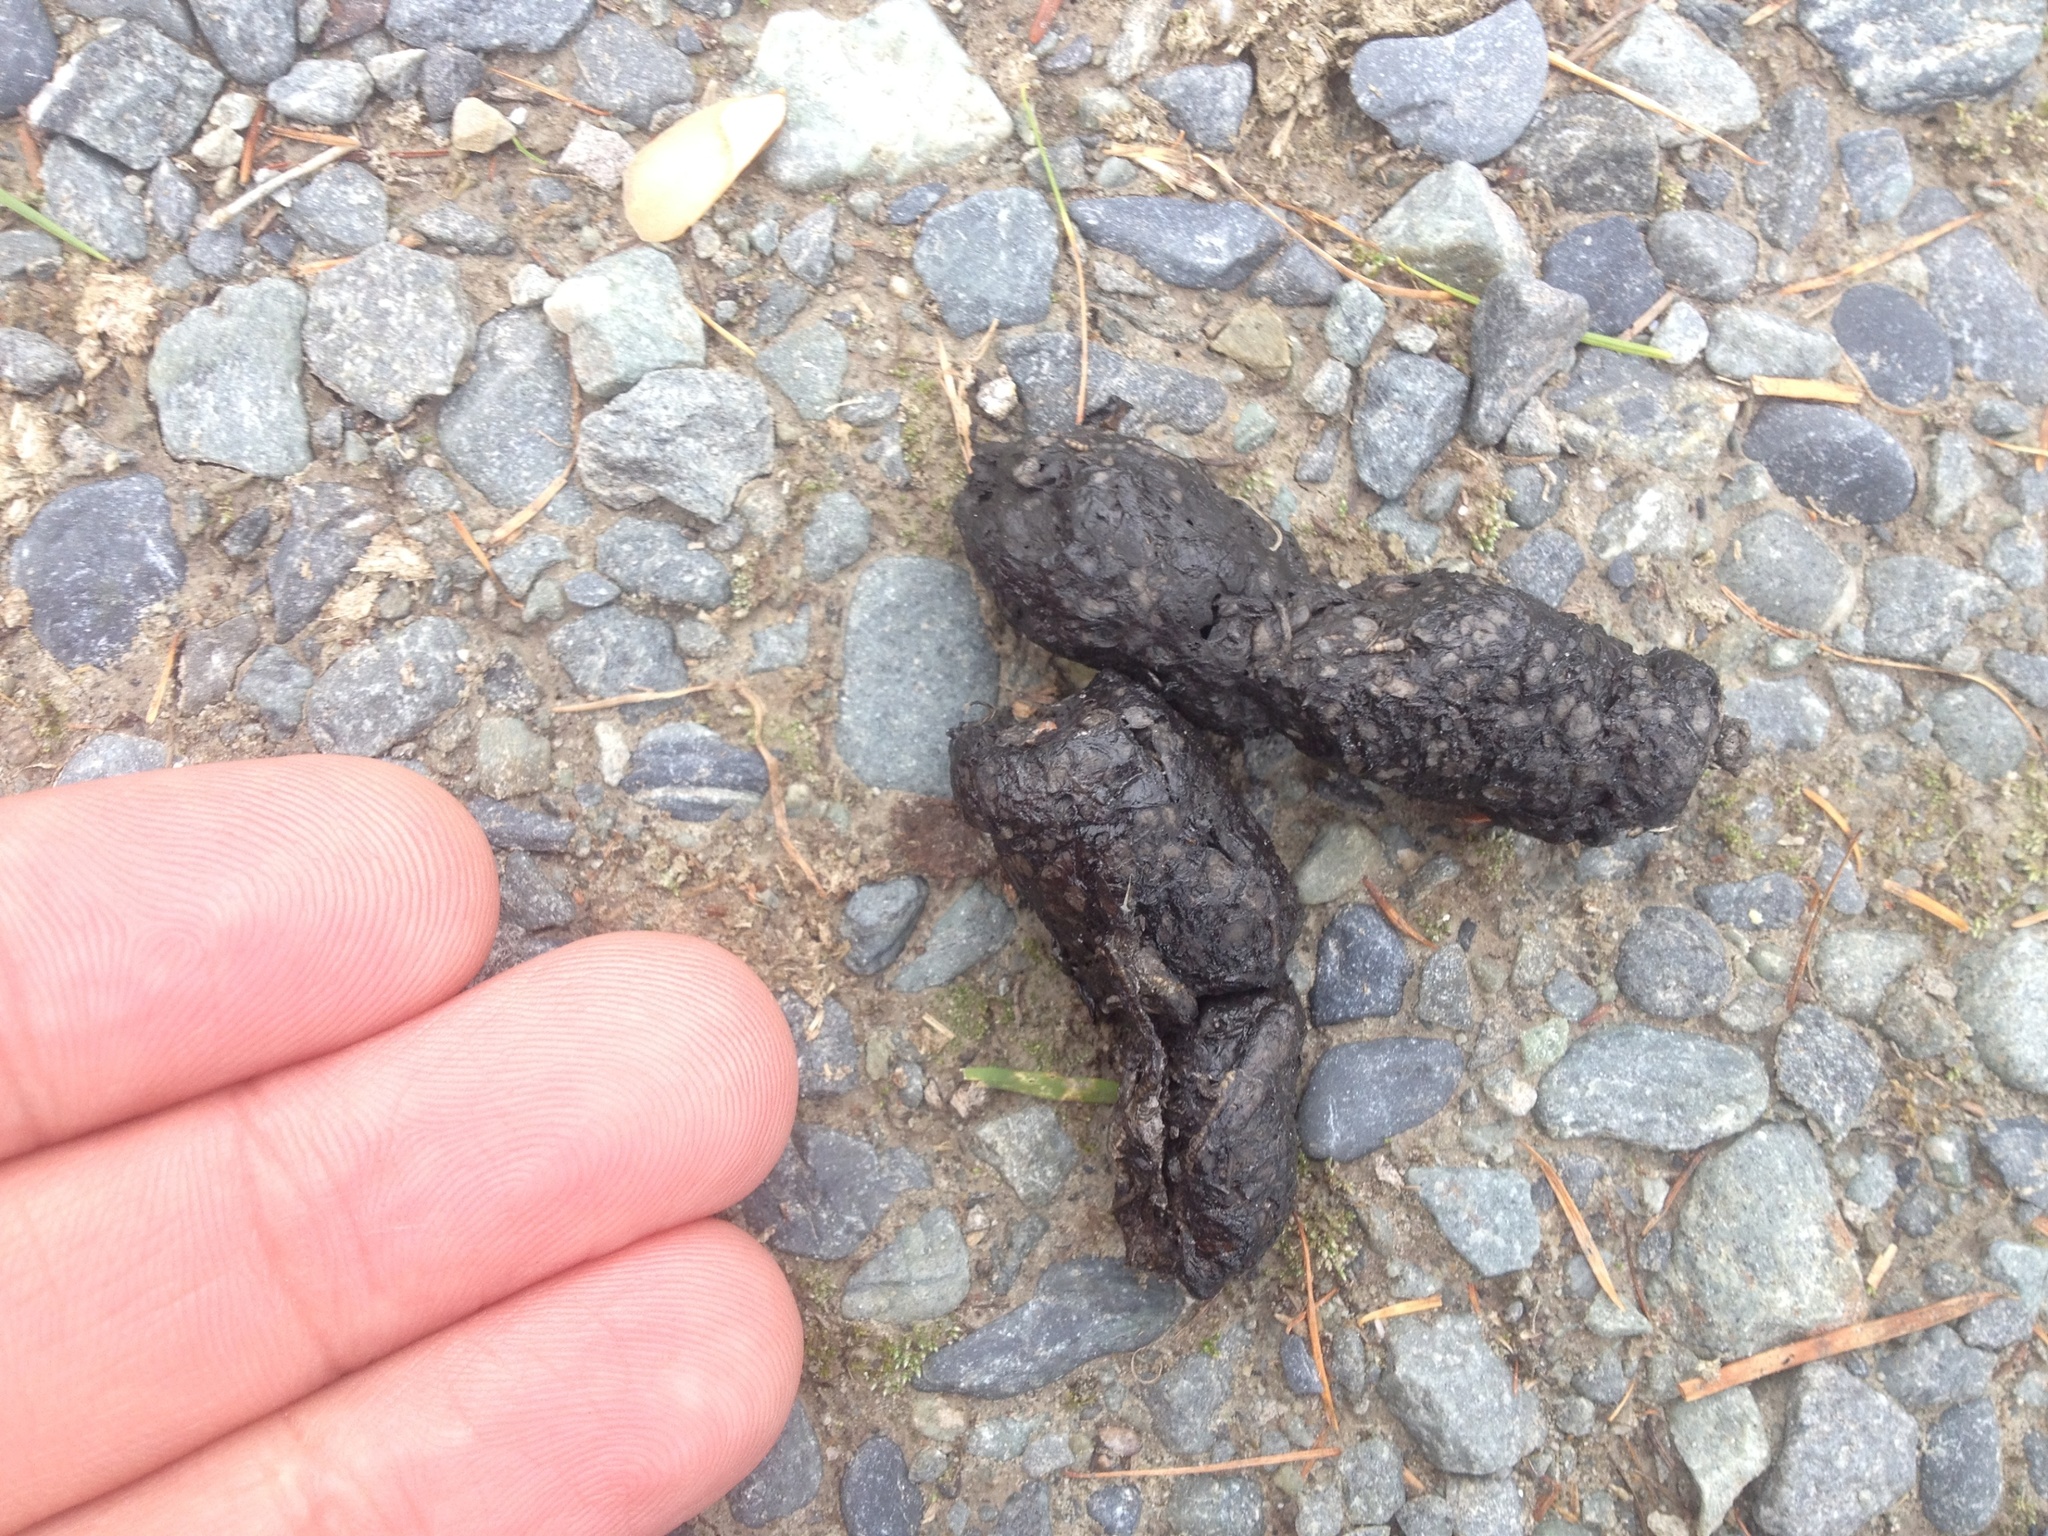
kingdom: Animalia
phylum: Chordata
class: Mammalia
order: Carnivora
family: Felidae
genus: Felis
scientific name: Felis catus
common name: Domestic cat
